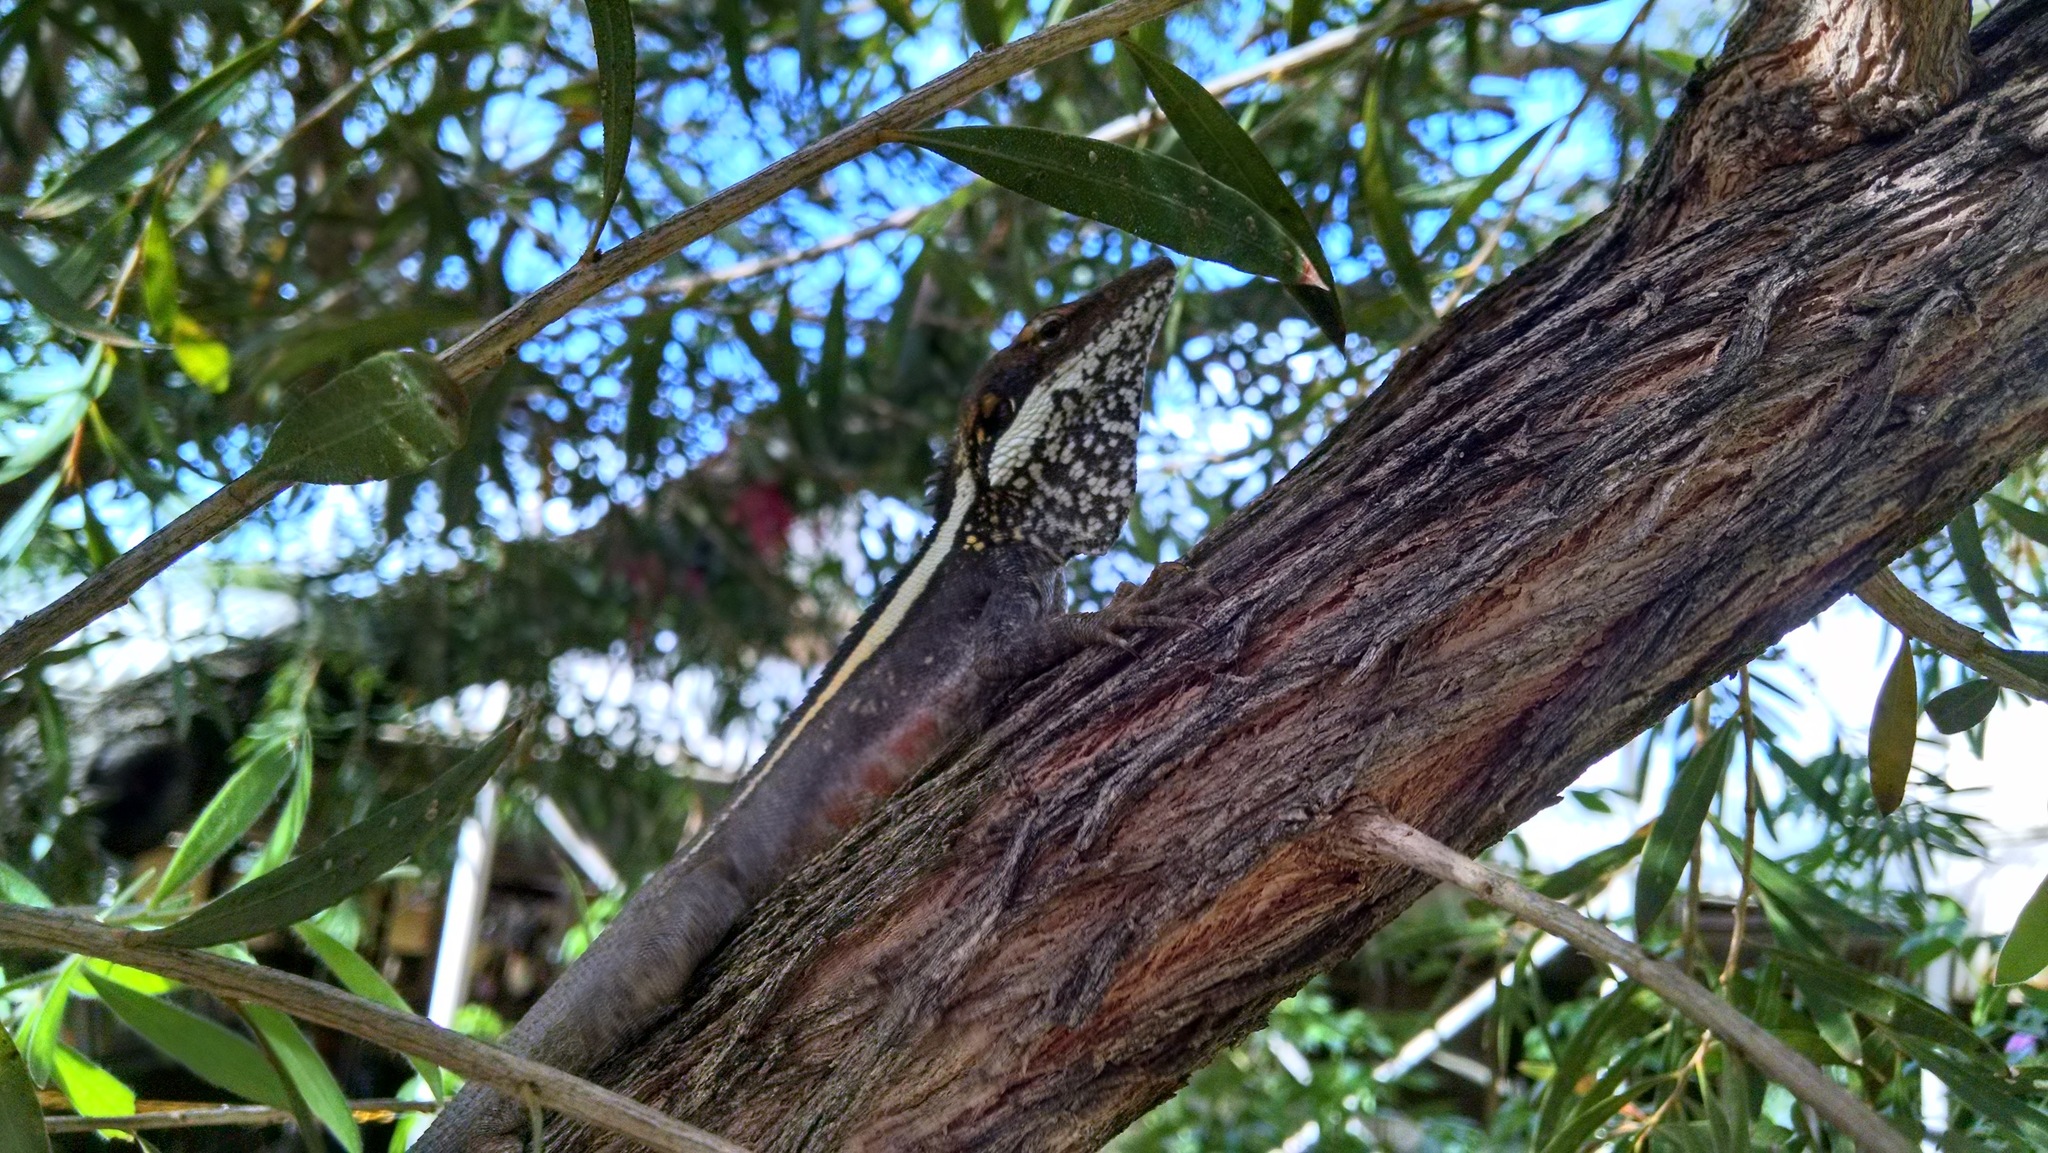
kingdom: Animalia
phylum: Chordata
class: Squamata
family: Agamidae
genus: Gowidon
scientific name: Gowidon longirostris
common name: Long-nosed water dragon
